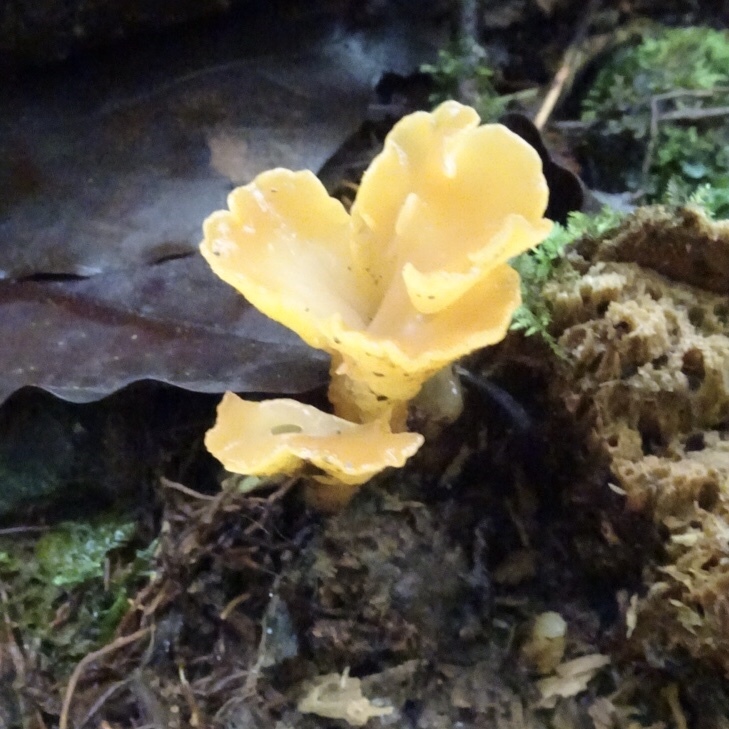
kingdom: Fungi
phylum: Basidiomycota
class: Dacrymycetes
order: Dacrymycetales
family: Dacrymycetaceae
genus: Dacrymyces
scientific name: Dacrymyces spathularius
